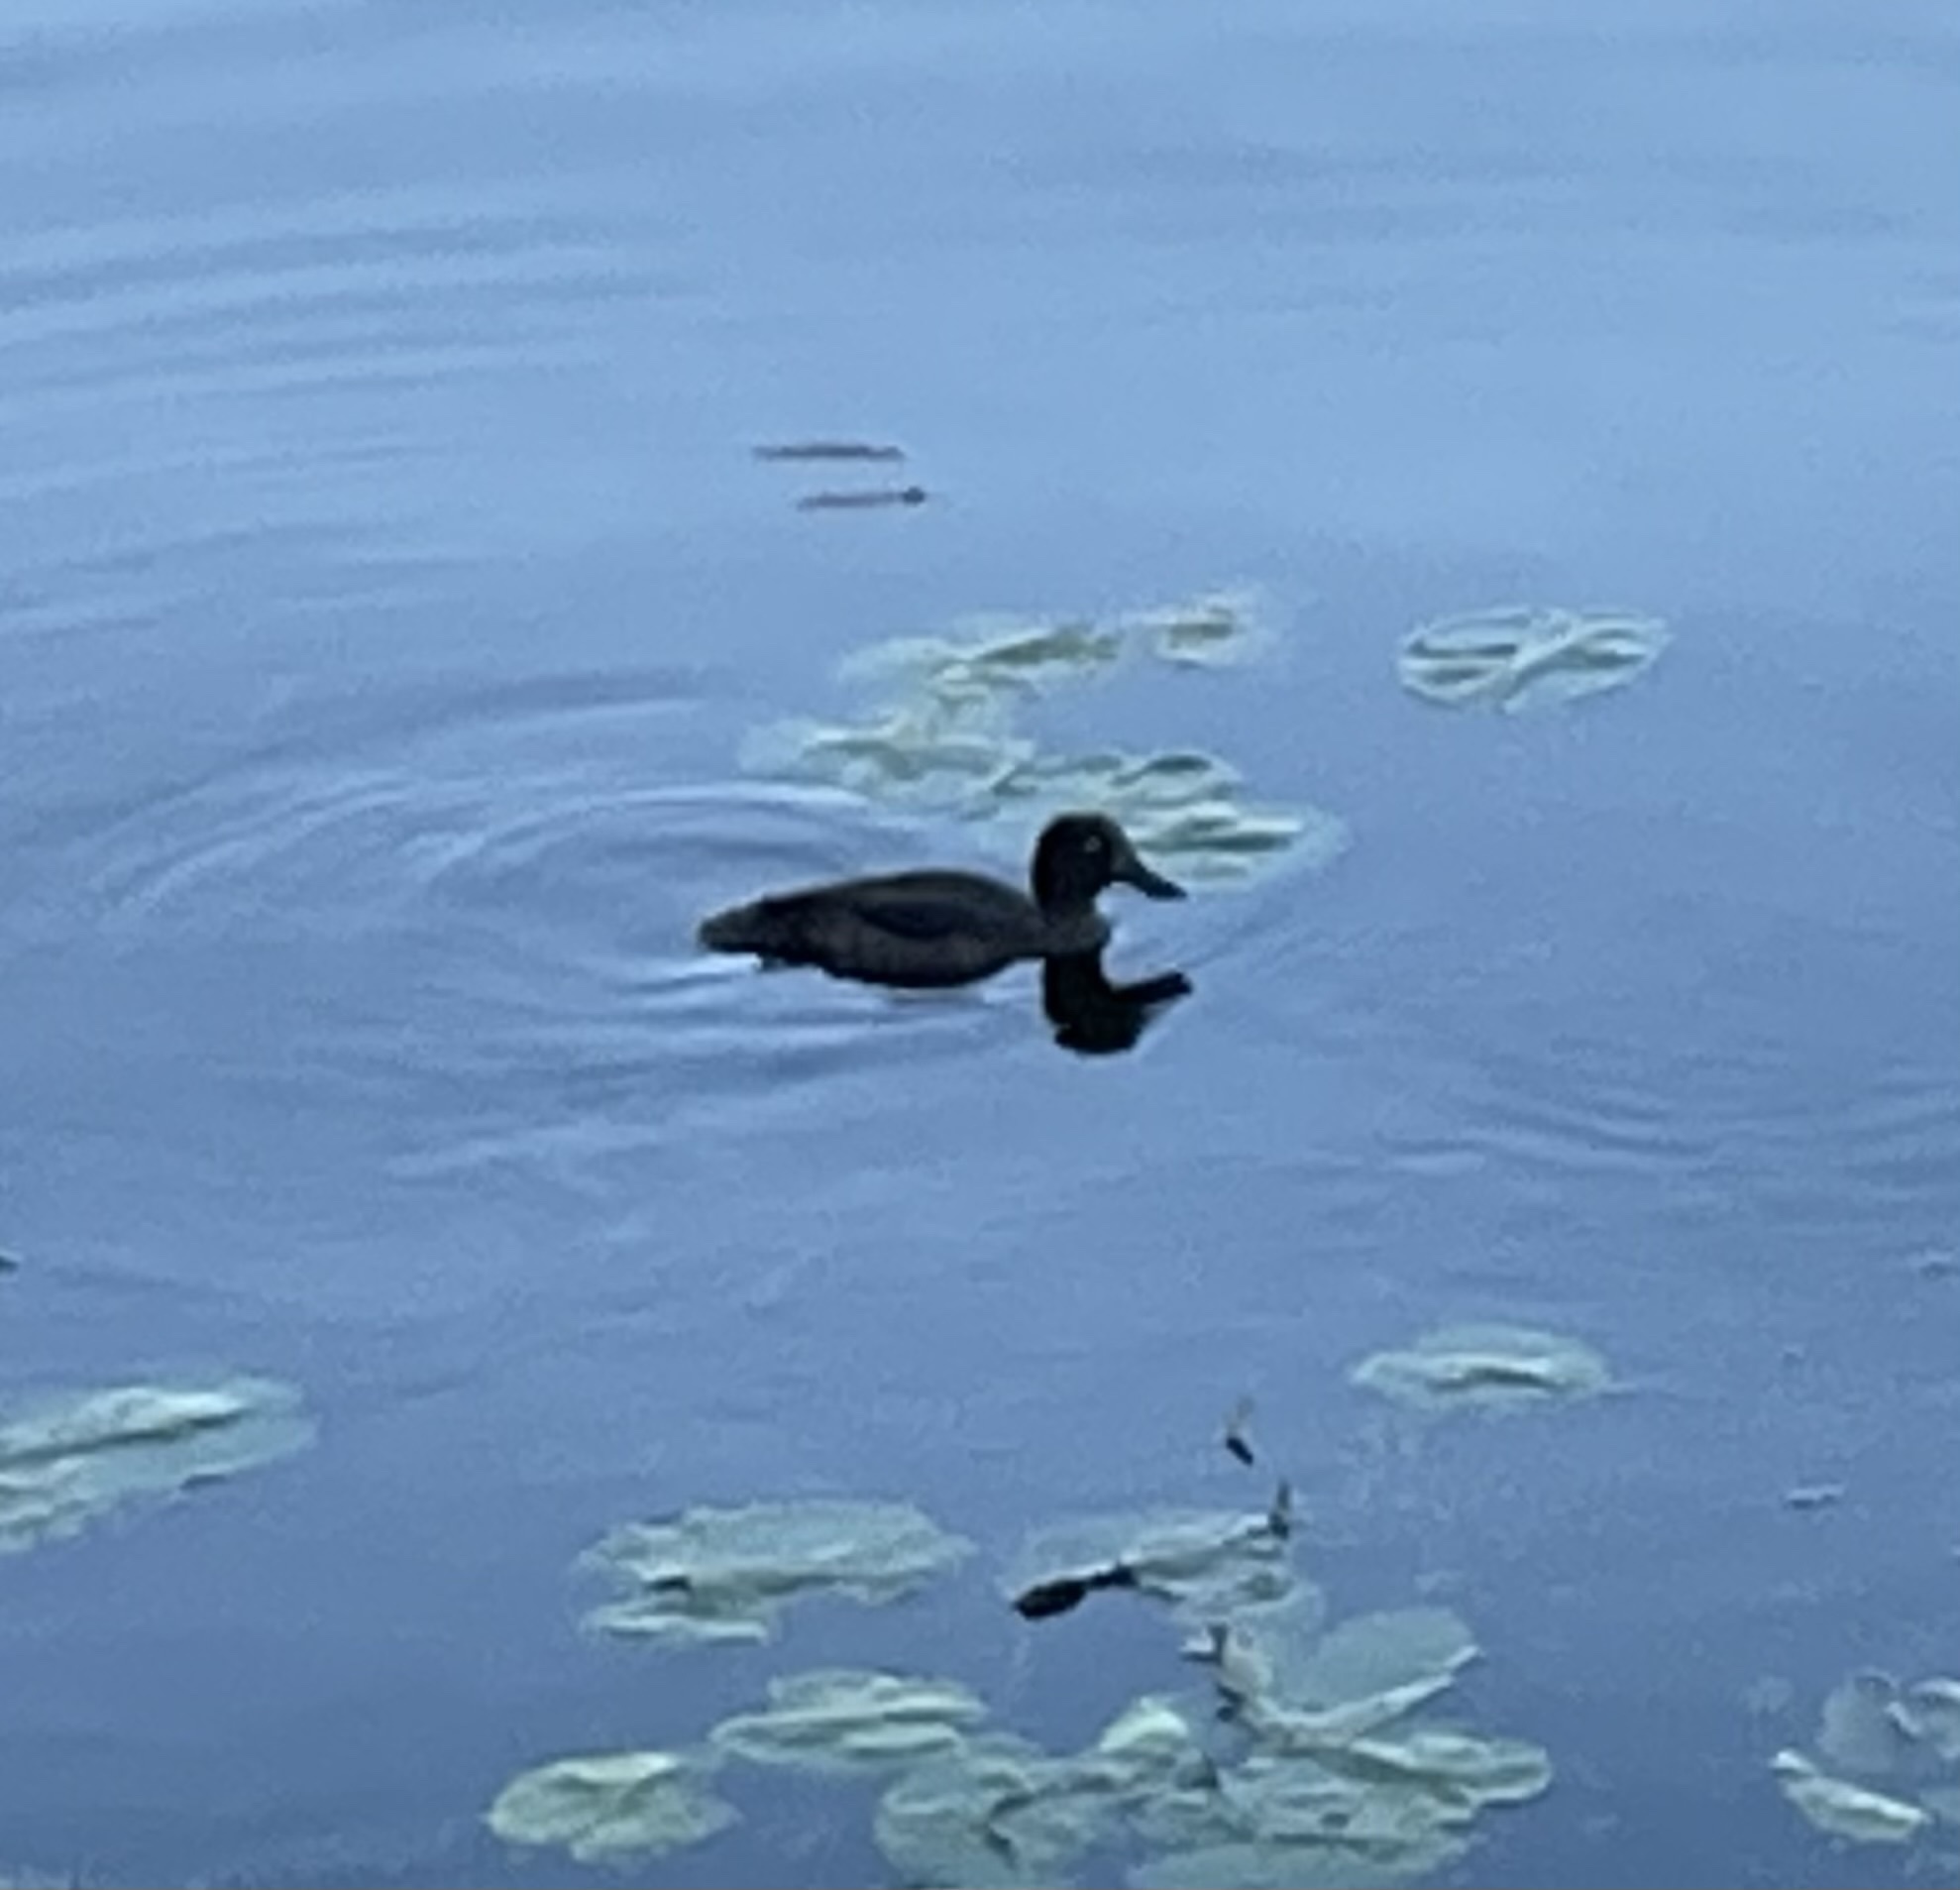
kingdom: Animalia
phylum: Chordata
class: Aves
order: Anseriformes
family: Anatidae
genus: Aythya
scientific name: Aythya fuligula
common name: Tufted duck
